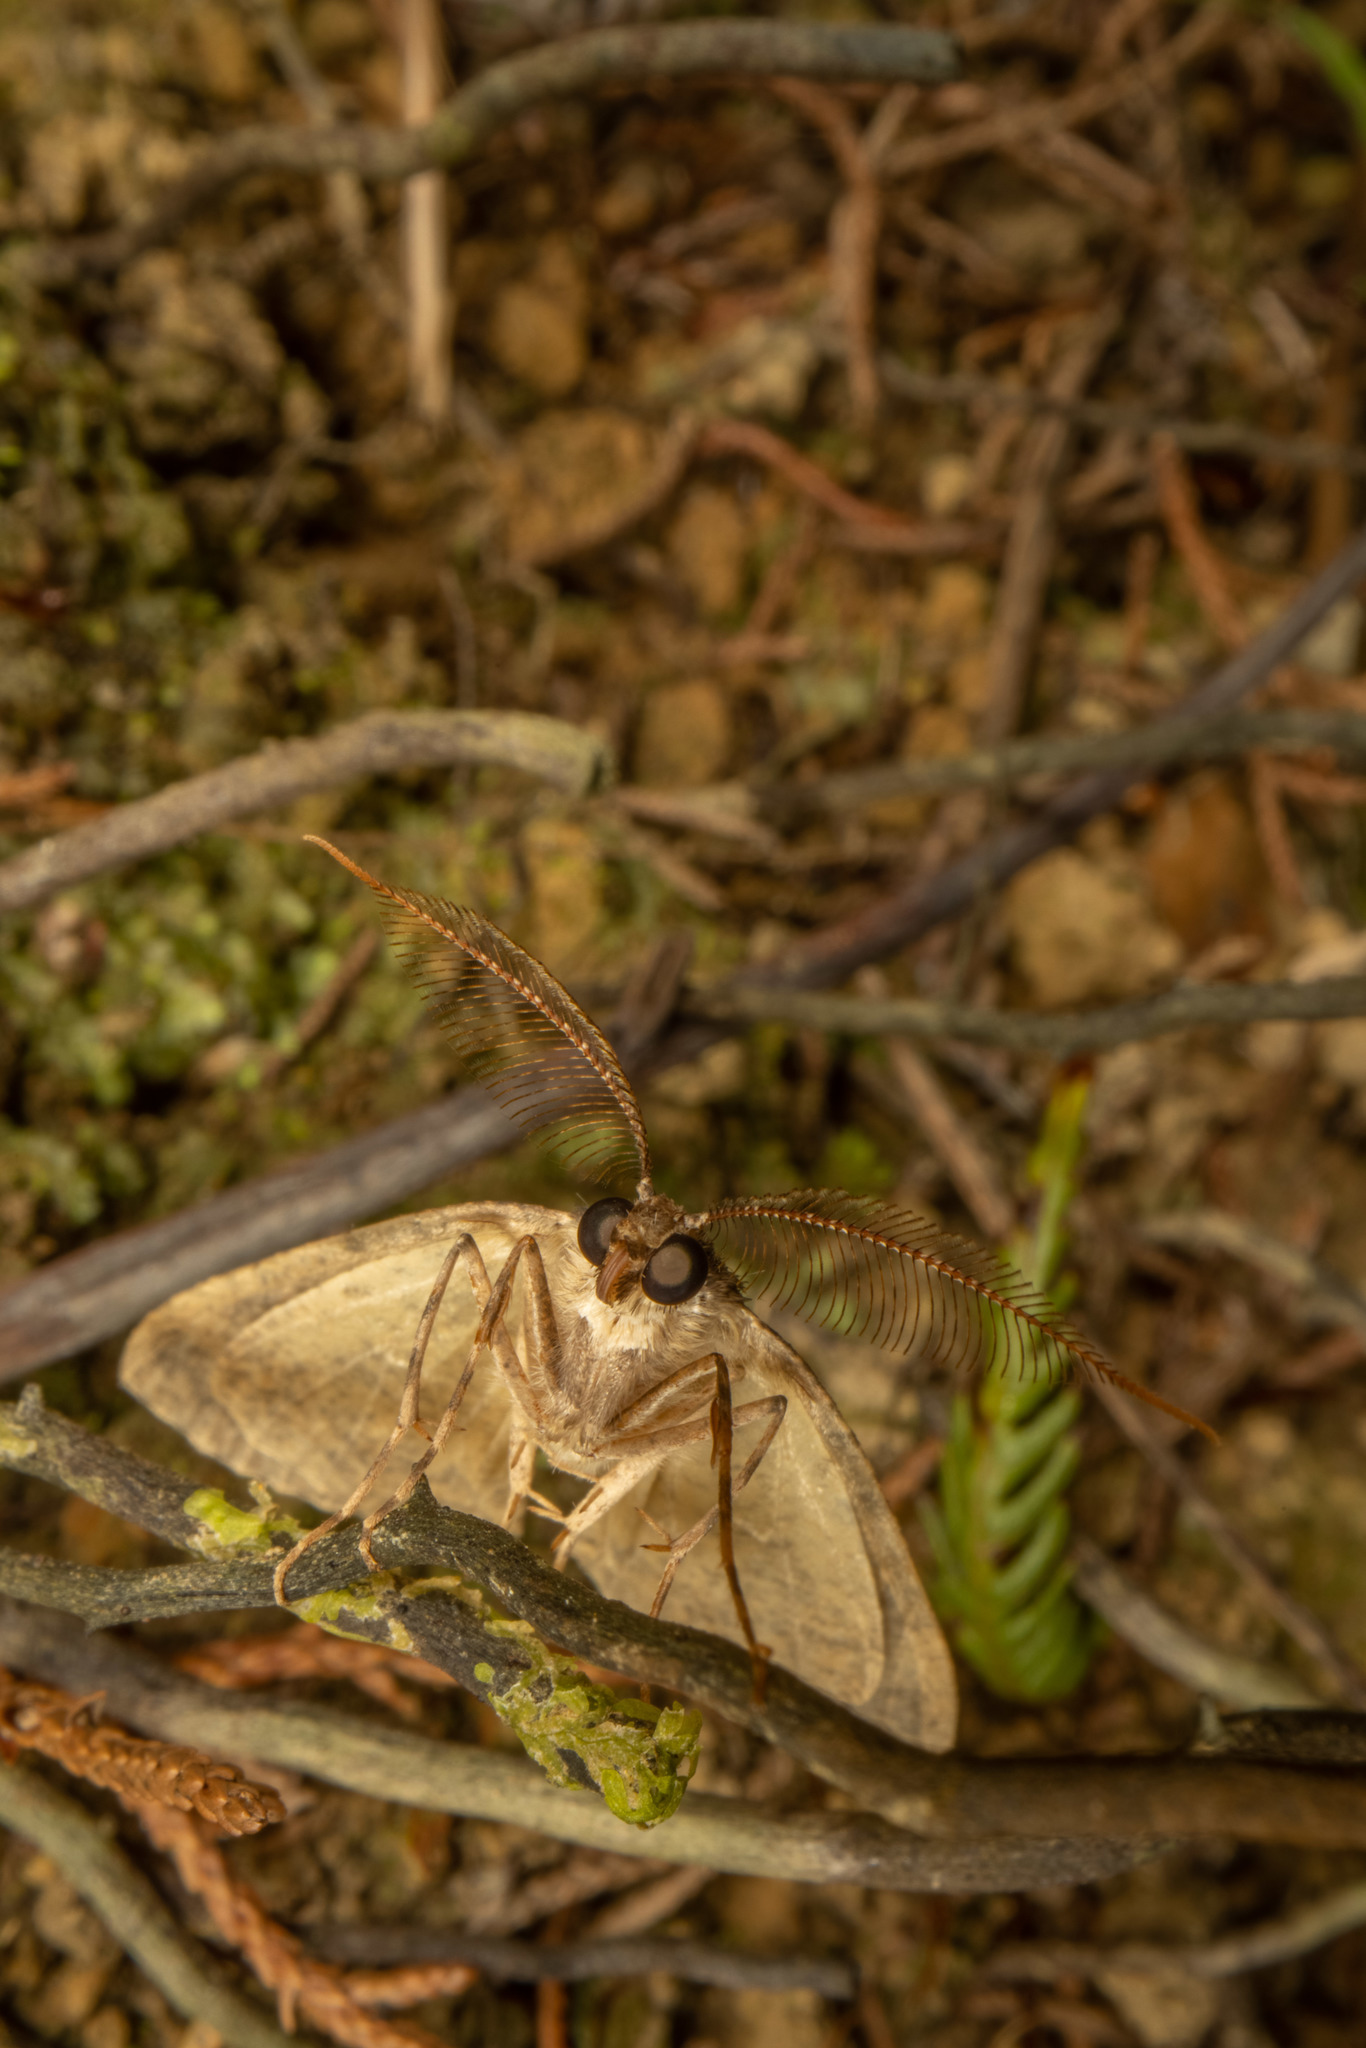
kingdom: Animalia
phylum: Arthropoda
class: Insecta
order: Lepidoptera
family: Geometridae
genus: Pseudocoremia
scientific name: Pseudocoremia suavis
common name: Common forest looper
